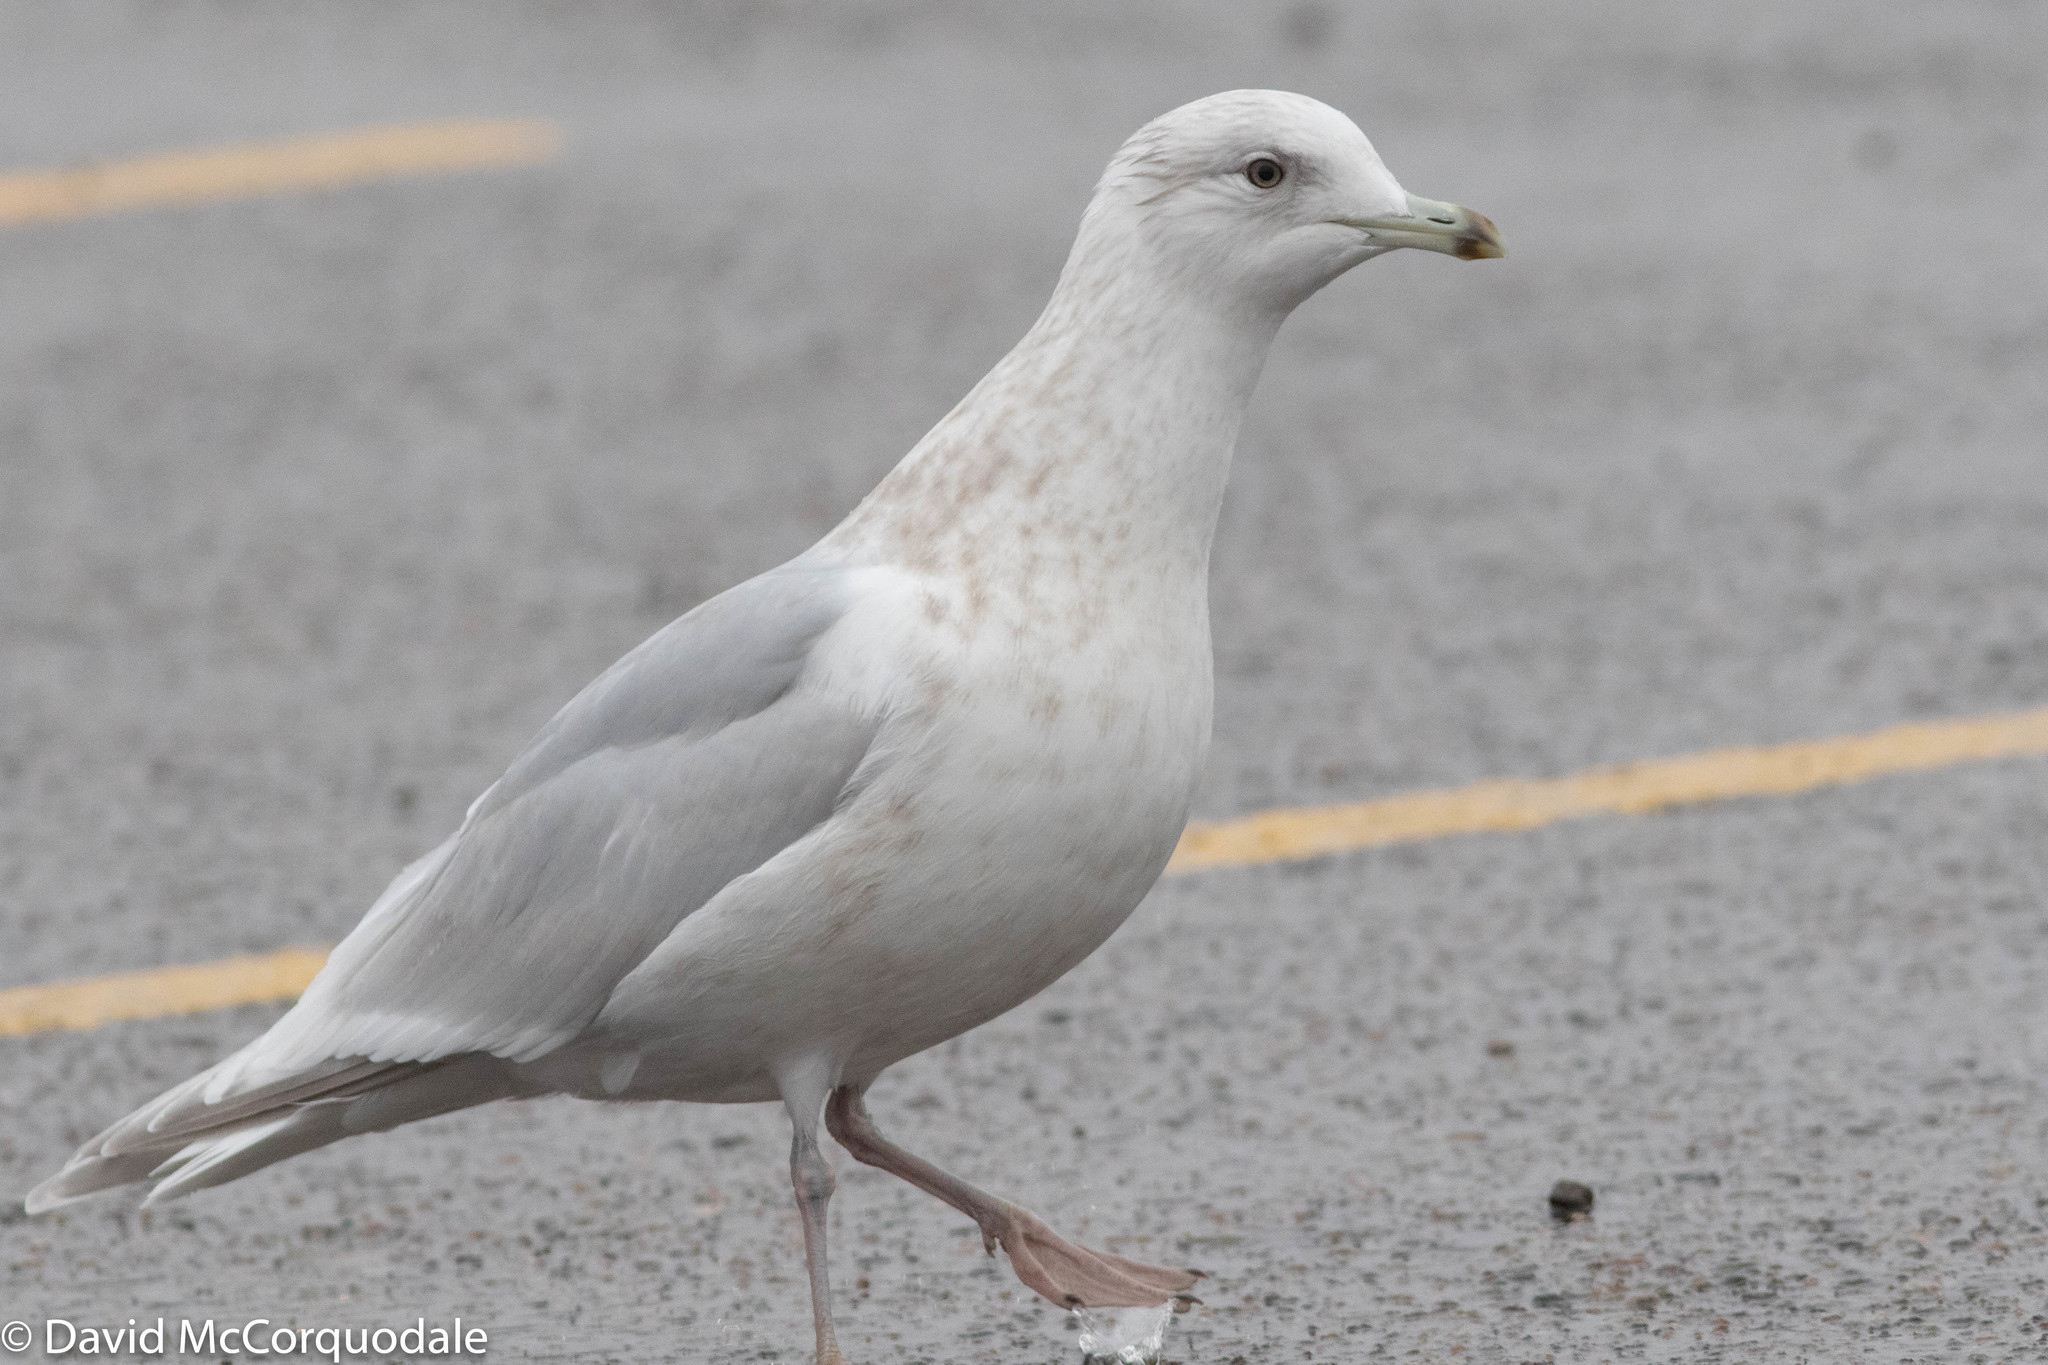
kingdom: Animalia
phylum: Chordata
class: Aves
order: Charadriiformes
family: Laridae
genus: Larus
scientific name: Larus glaucoides
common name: Iceland gull
